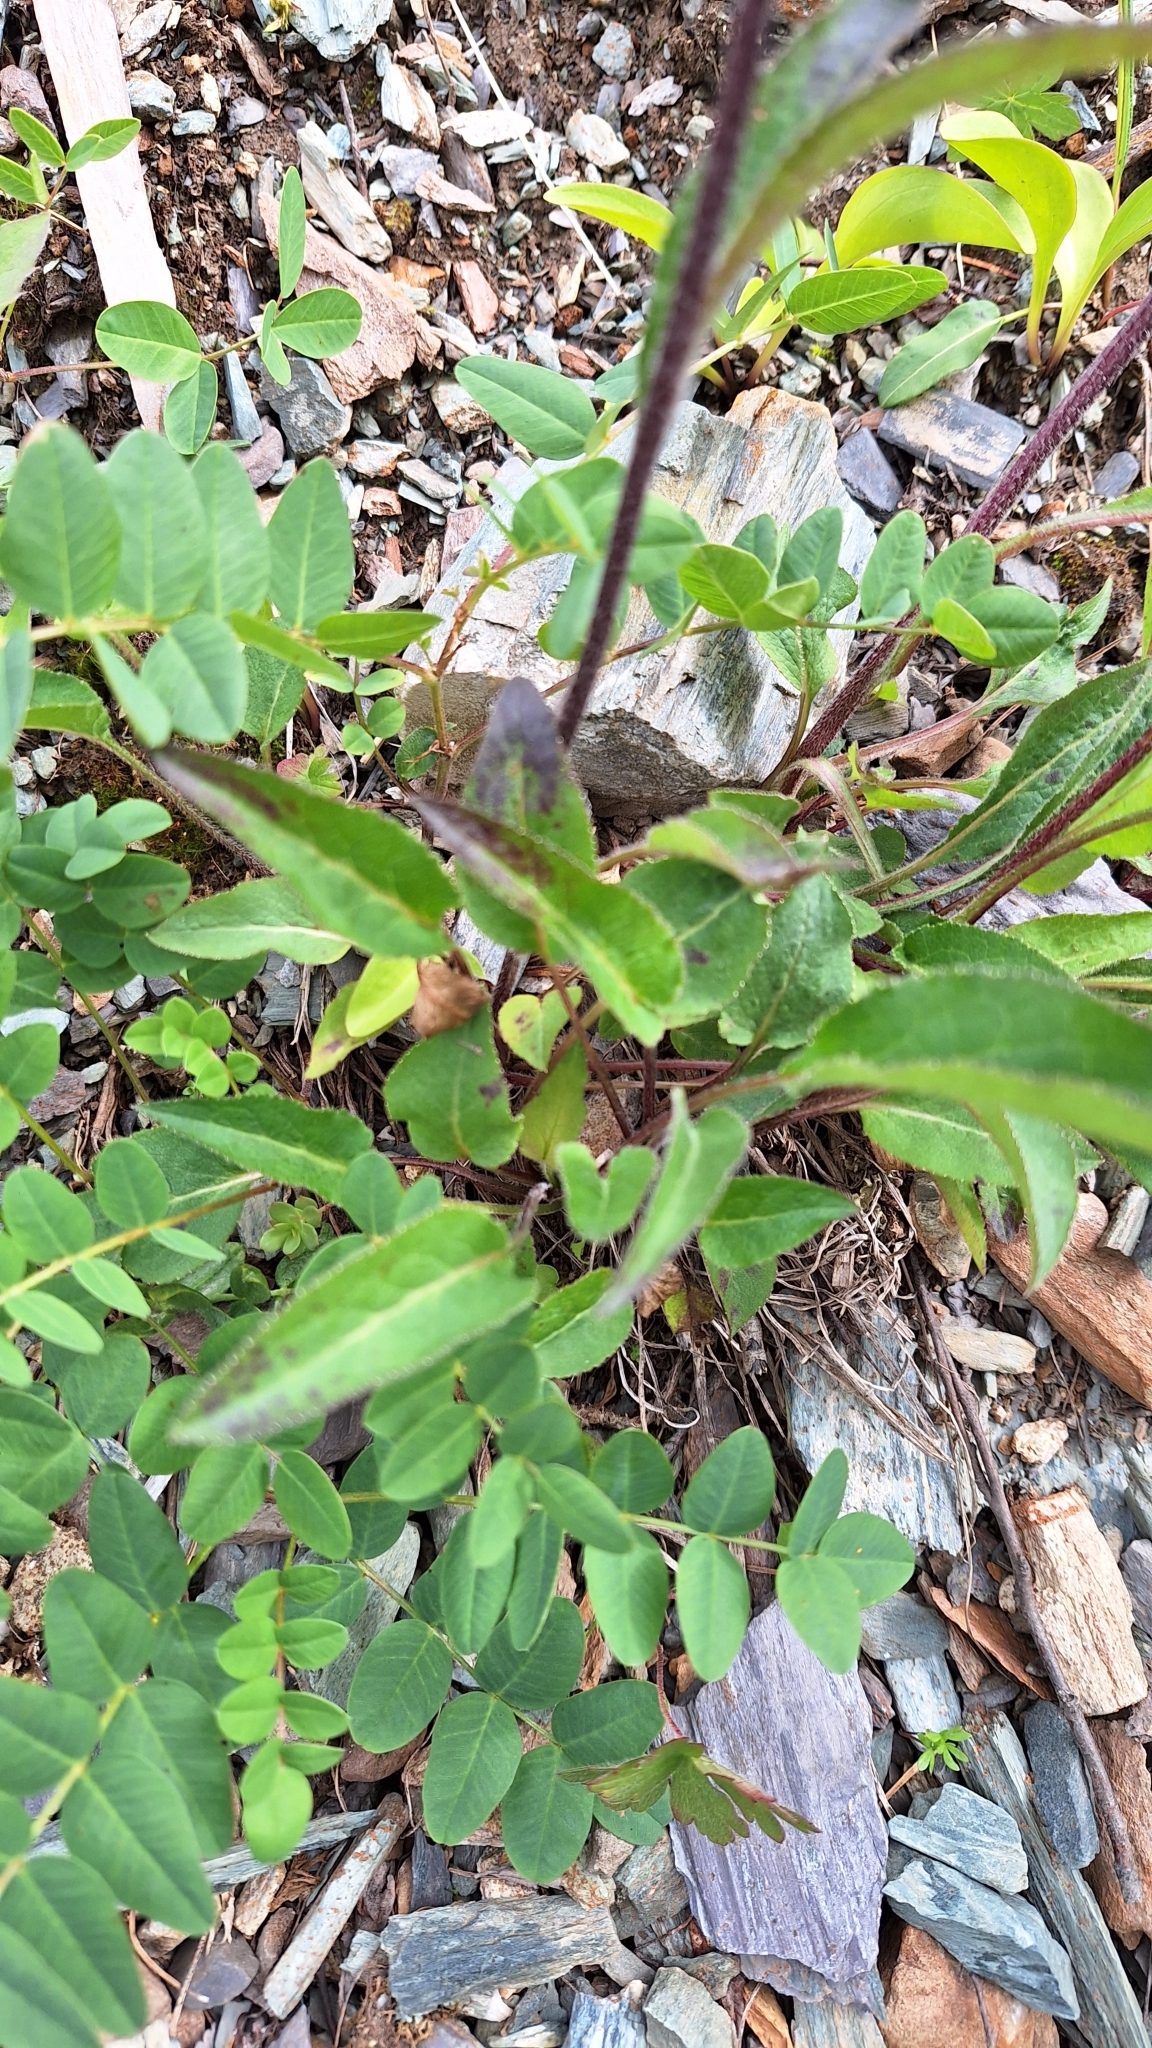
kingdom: Plantae
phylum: Tracheophyta
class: Magnoliopsida
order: Asterales
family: Campanulaceae
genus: Campanula
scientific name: Campanula glomerata
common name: Clustered bellflower
